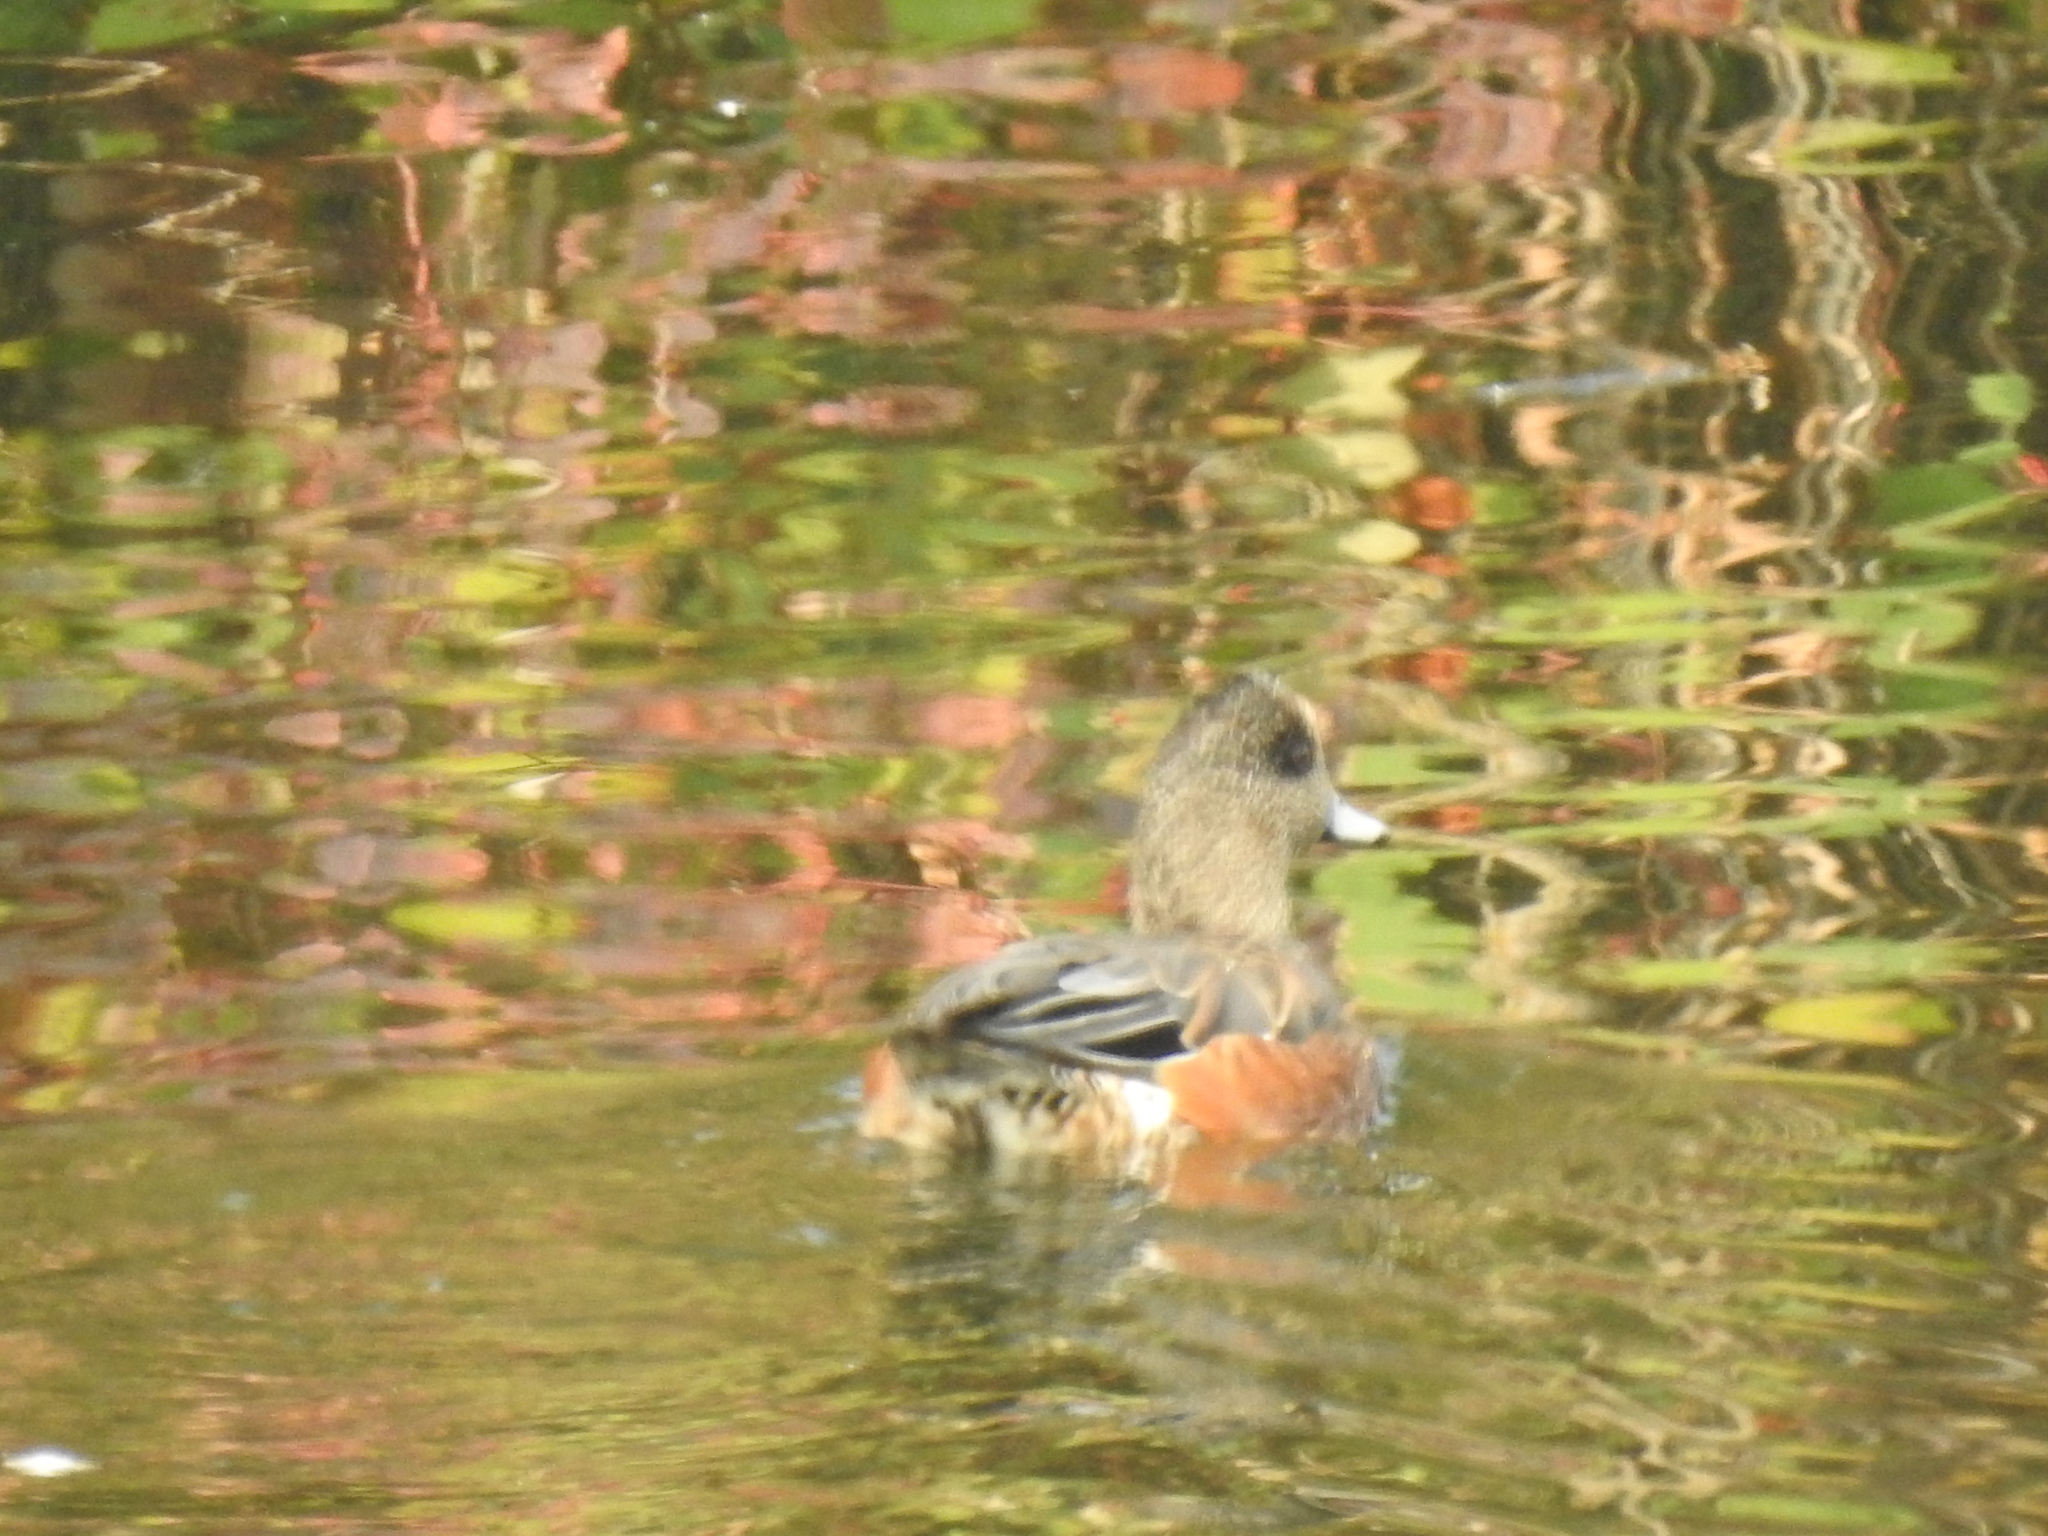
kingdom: Animalia
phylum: Chordata
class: Aves
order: Anseriformes
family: Anatidae
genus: Mareca
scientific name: Mareca americana
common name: American wigeon
